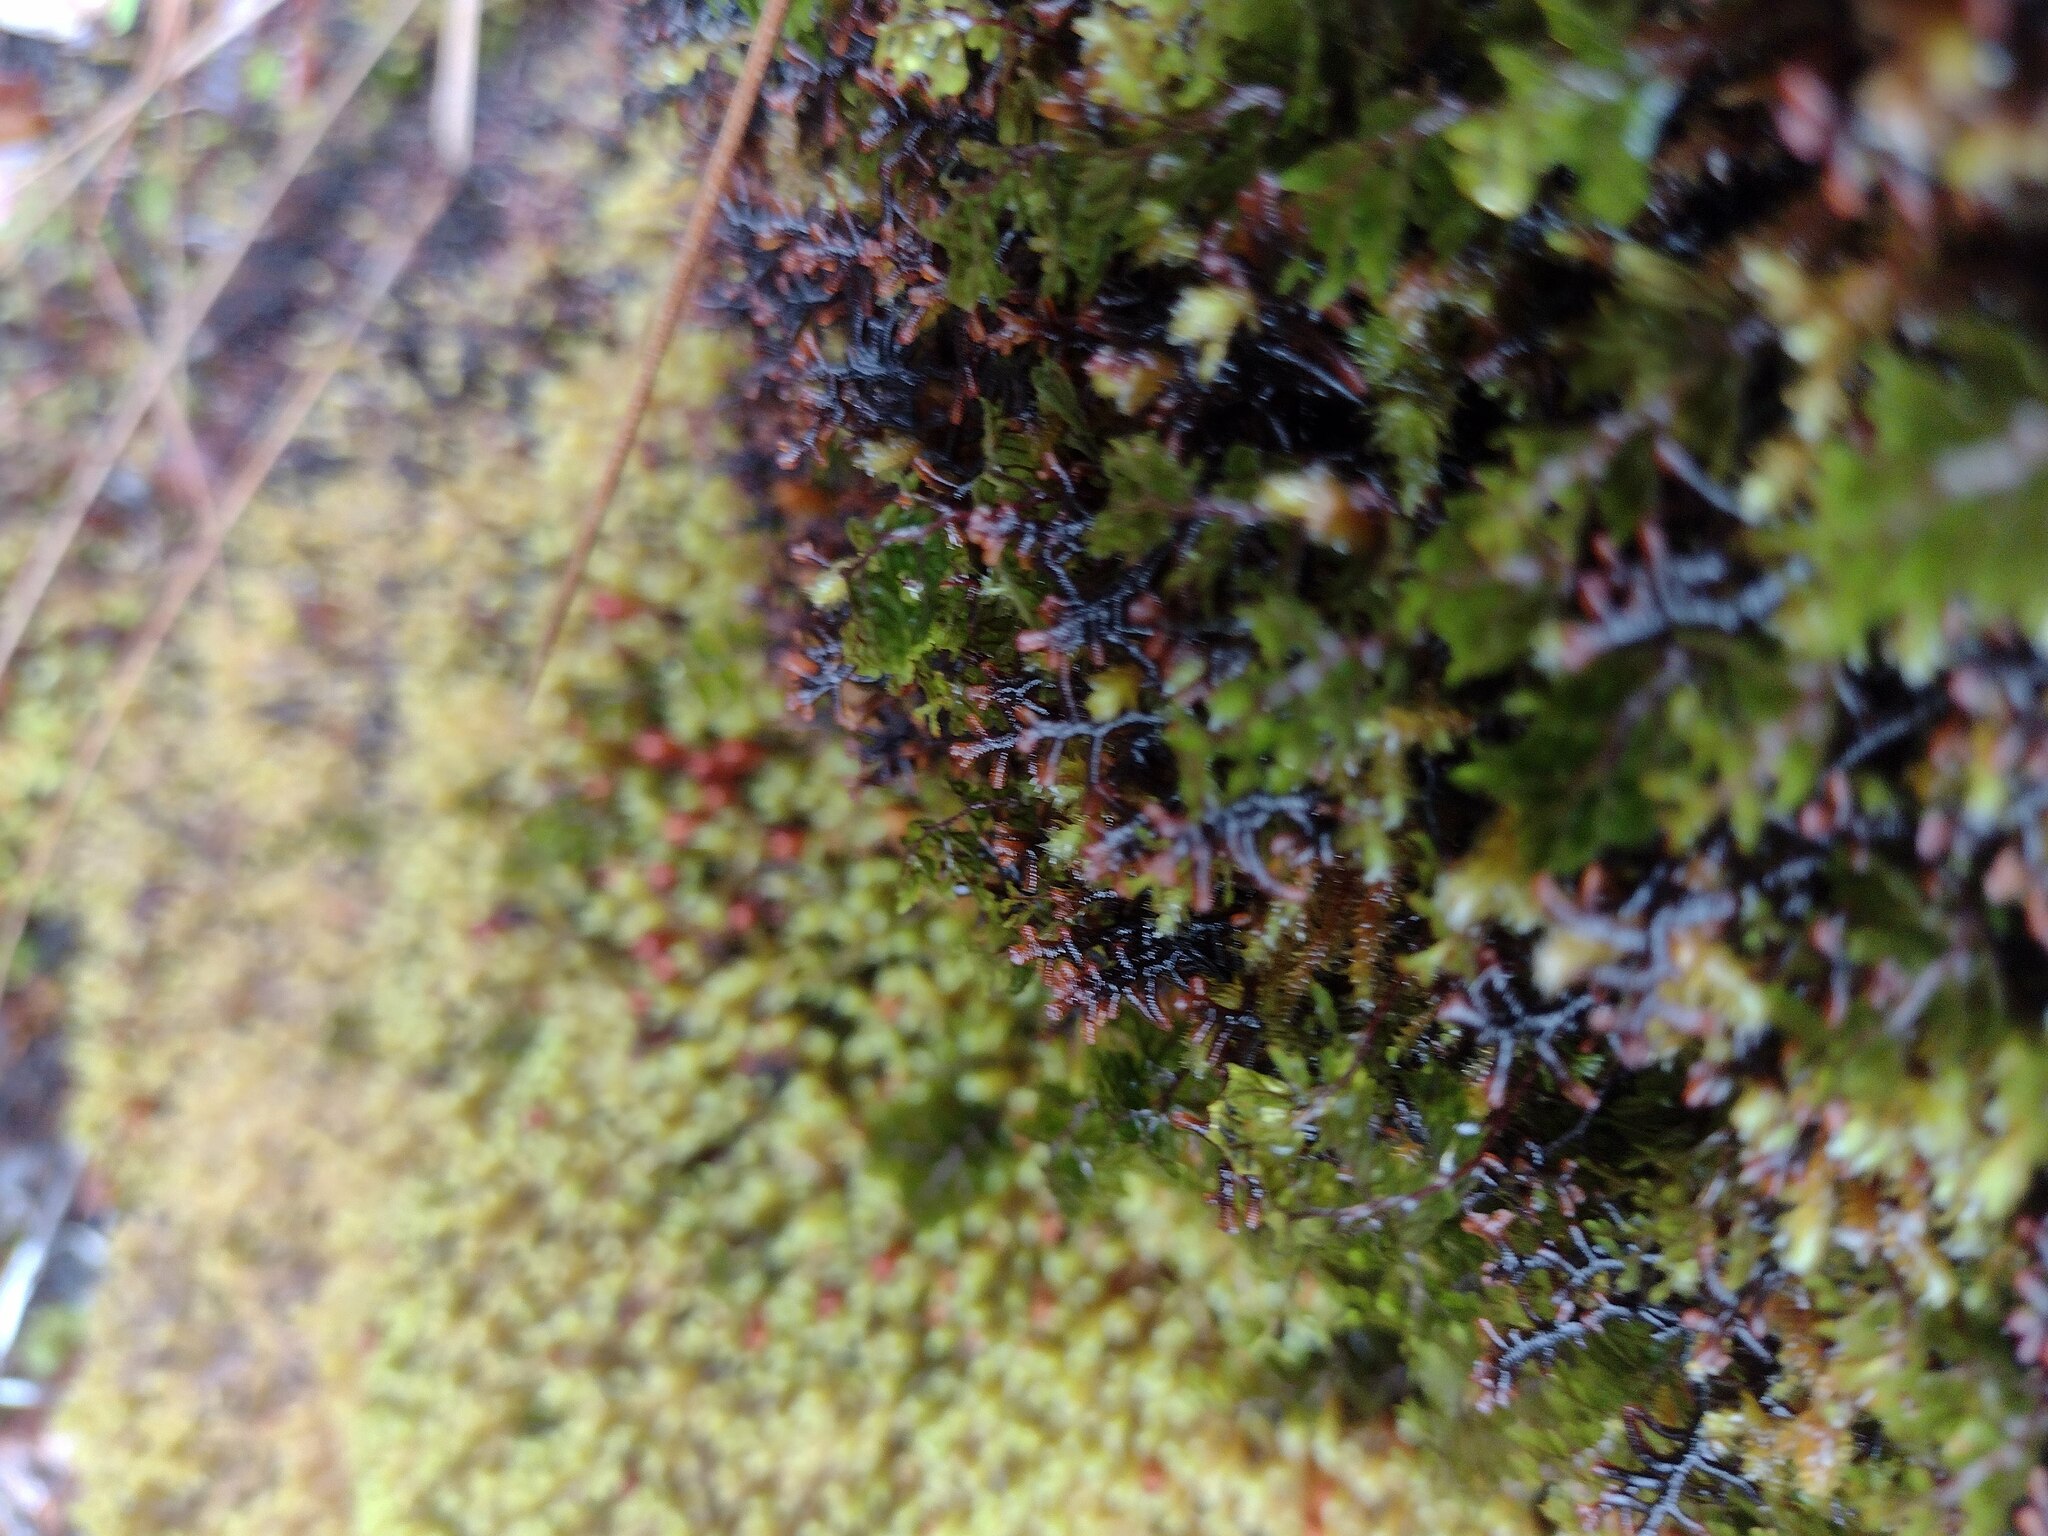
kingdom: Plantae
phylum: Tracheophyta
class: Polypodiopsida
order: Hymenophyllales
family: Hymenophyllaceae
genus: Hymenophyllum
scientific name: Hymenophyllum lanceolatum
